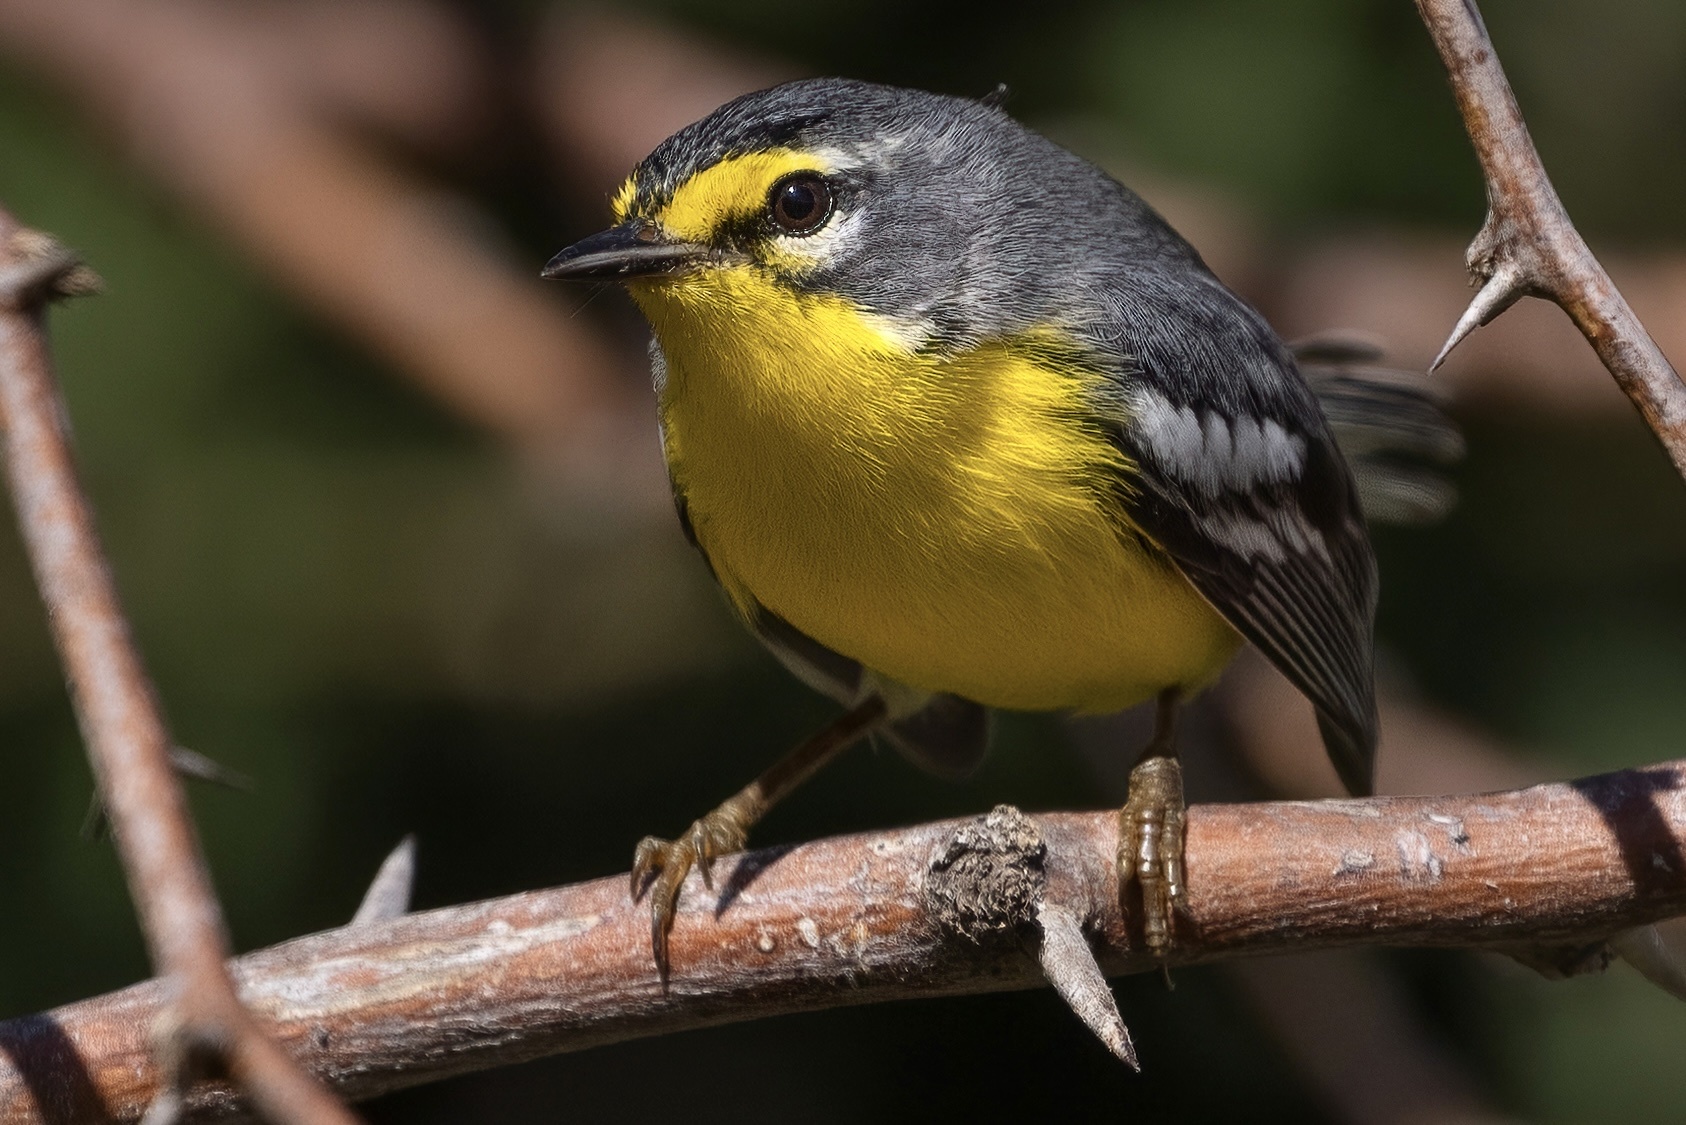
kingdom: Animalia
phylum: Chordata
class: Aves
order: Passeriformes
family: Parulidae
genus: Setophaga
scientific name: Setophaga adelaidae
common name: Adelaide's warbler
